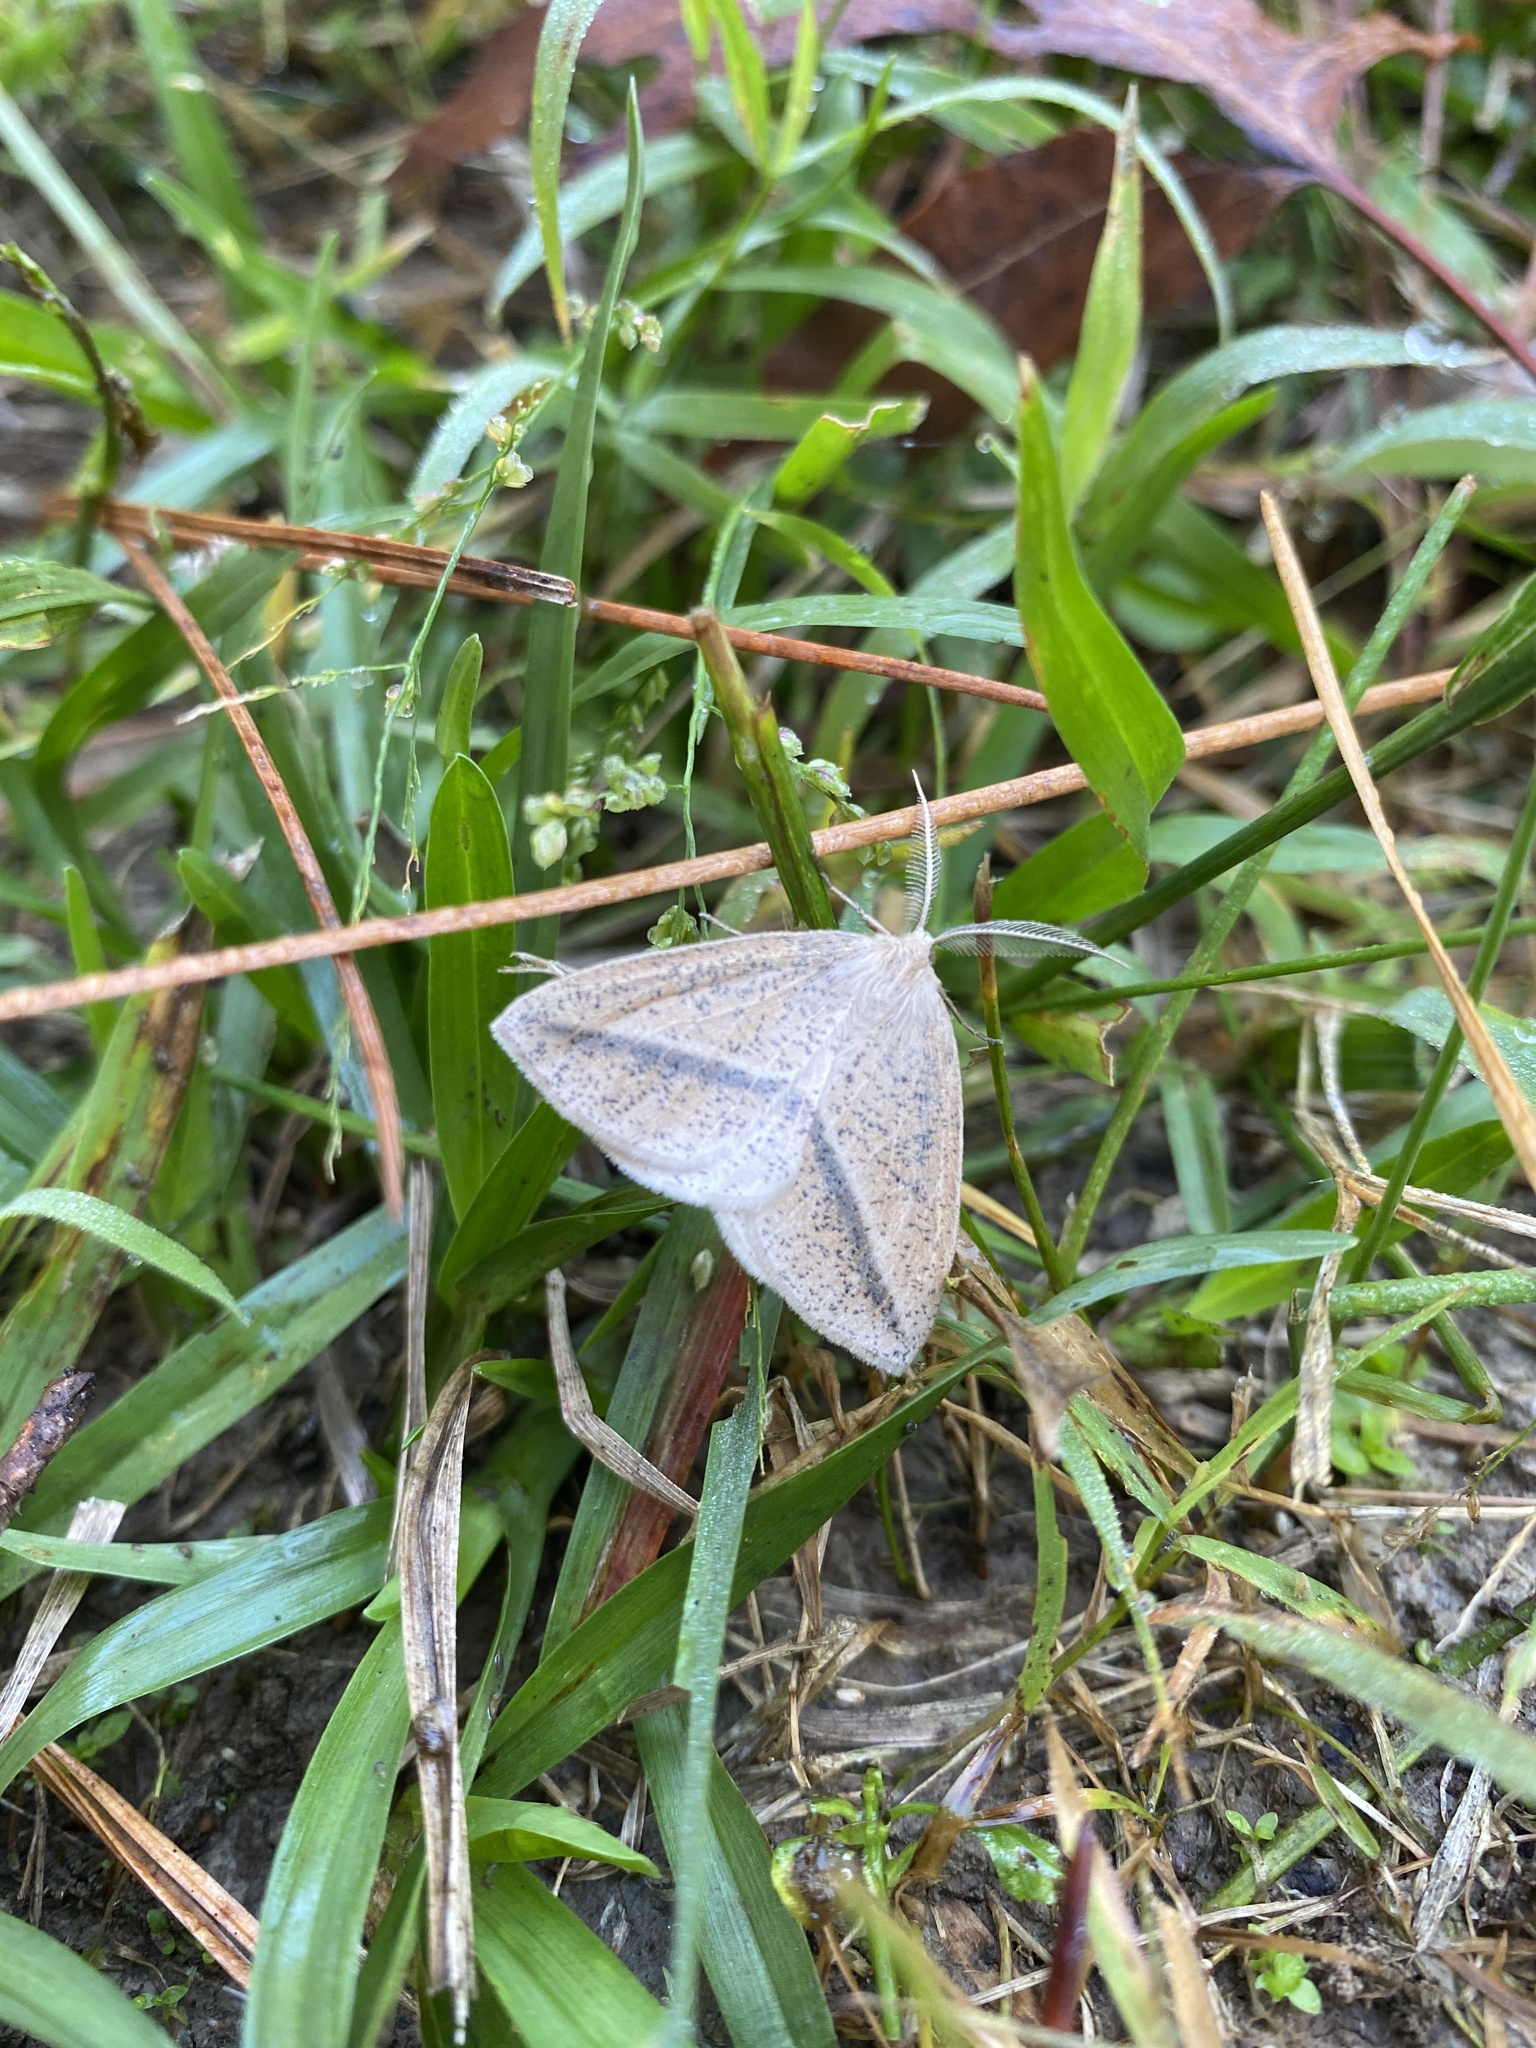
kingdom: Animalia
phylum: Arthropoda
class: Insecta
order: Lepidoptera
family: Geometridae
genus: Lychnosea
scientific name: Lychnosea intermicata
